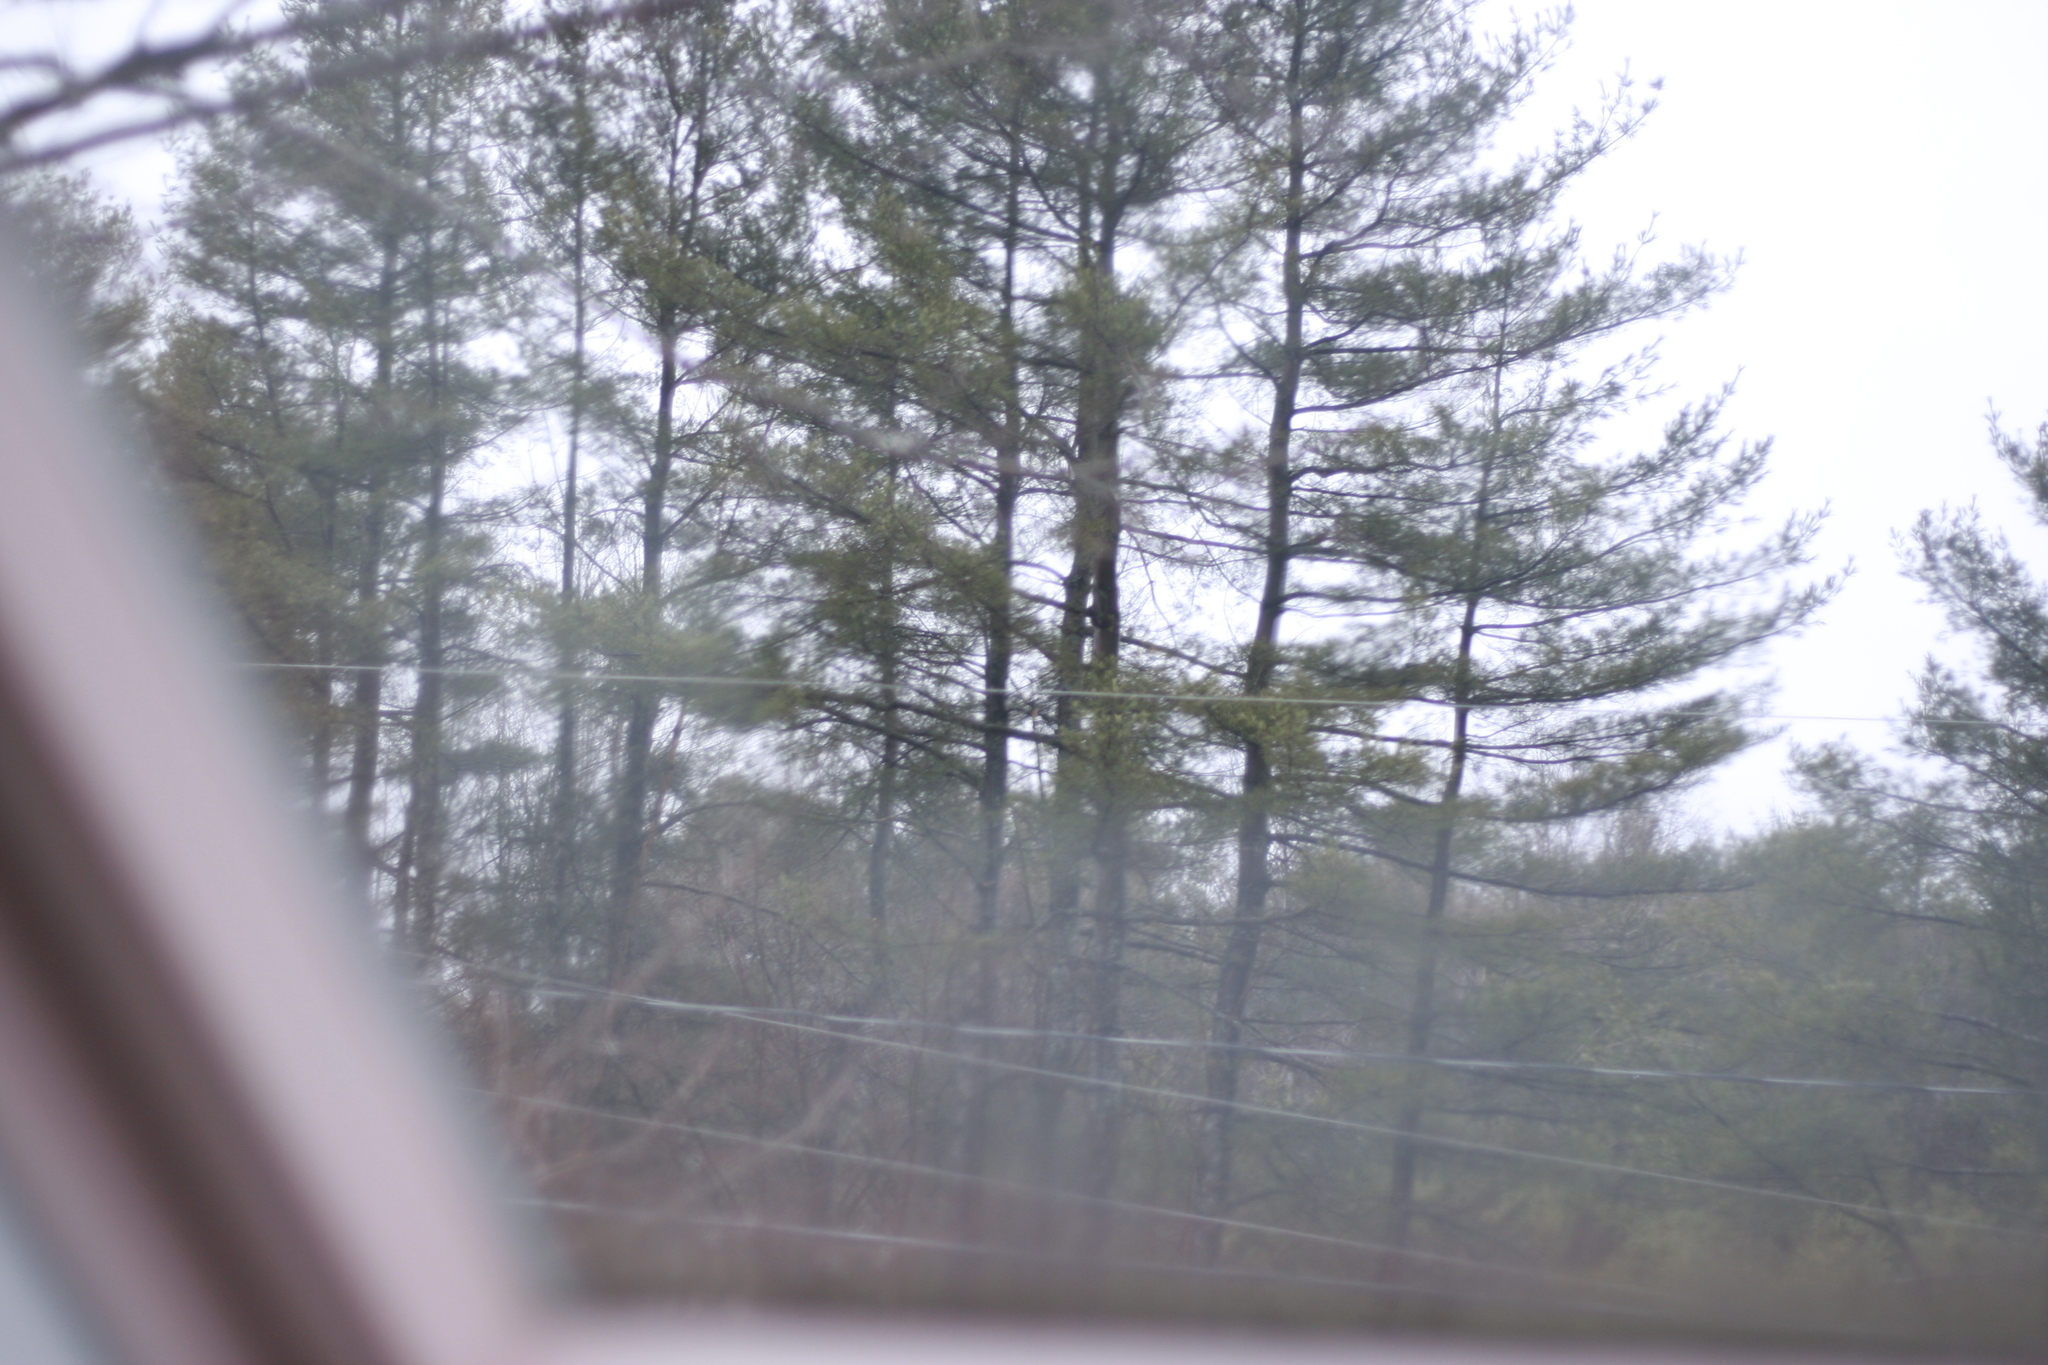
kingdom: Plantae
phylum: Tracheophyta
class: Pinopsida
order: Pinales
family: Pinaceae
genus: Pinus
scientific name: Pinus strobus
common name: Weymouth pine
